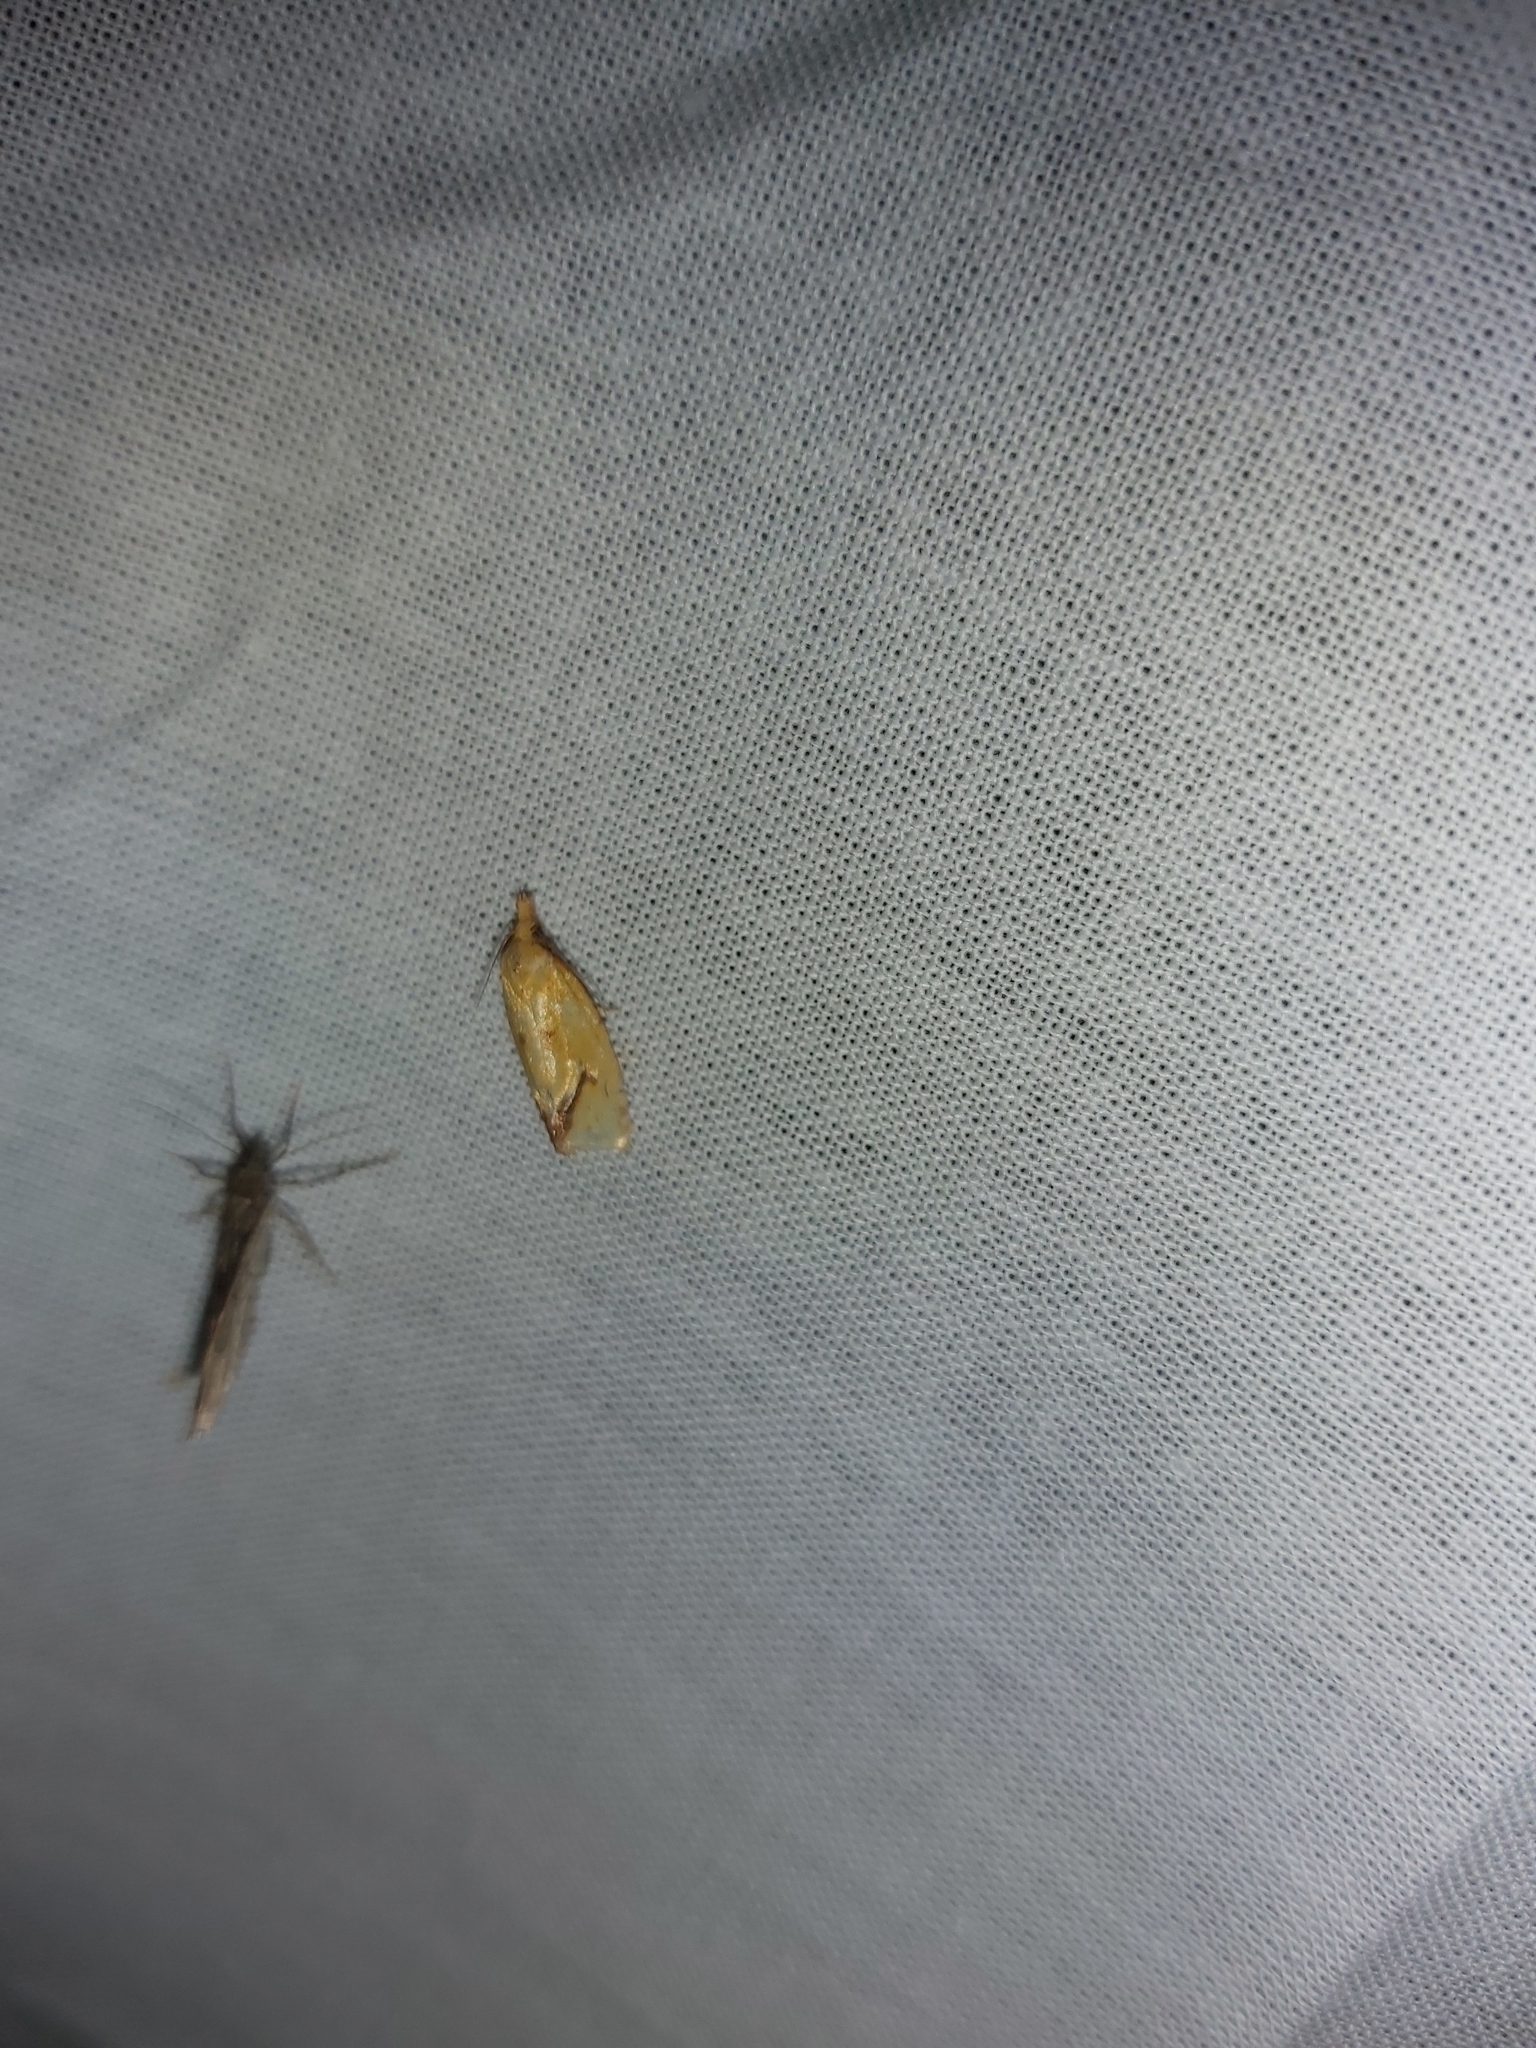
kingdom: Animalia
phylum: Arthropoda
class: Insecta
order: Lepidoptera
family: Tortricidae
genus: Agapeta
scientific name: Agapeta hamana
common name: Common yellow conch
